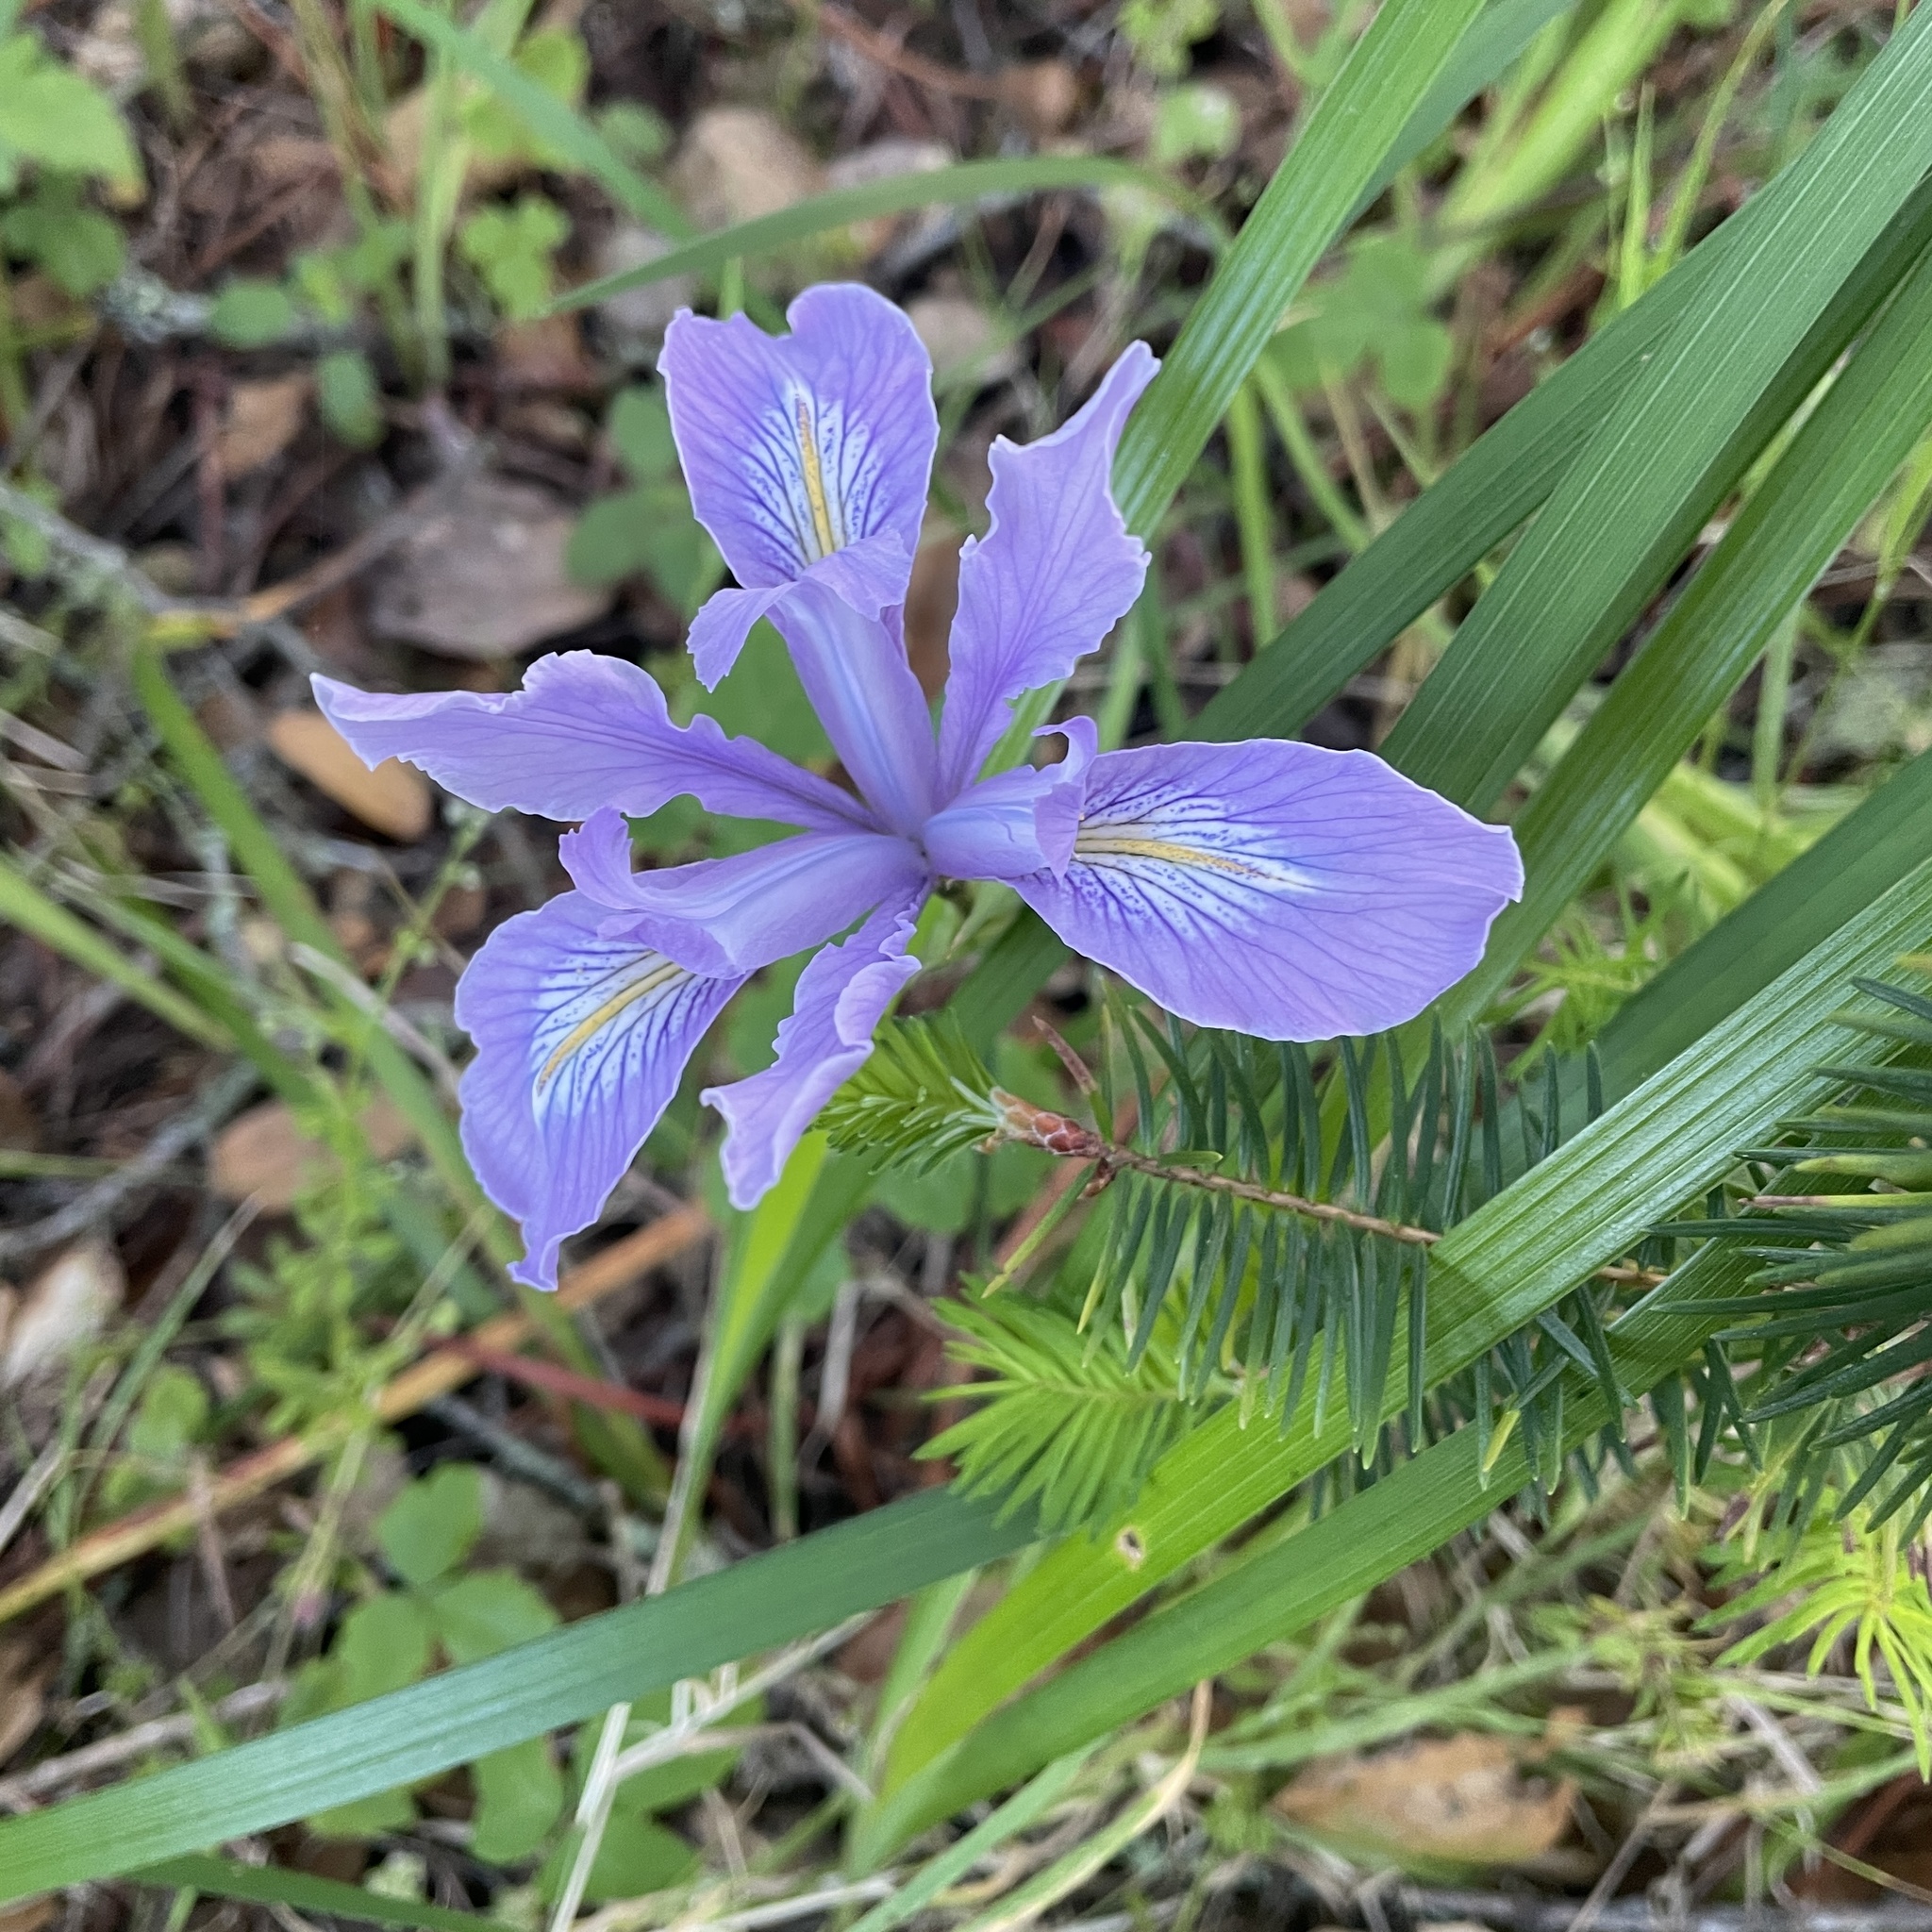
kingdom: Plantae
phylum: Tracheophyta
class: Liliopsida
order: Asparagales
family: Iridaceae
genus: Iris
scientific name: Iris douglasiana
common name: Marin iris
